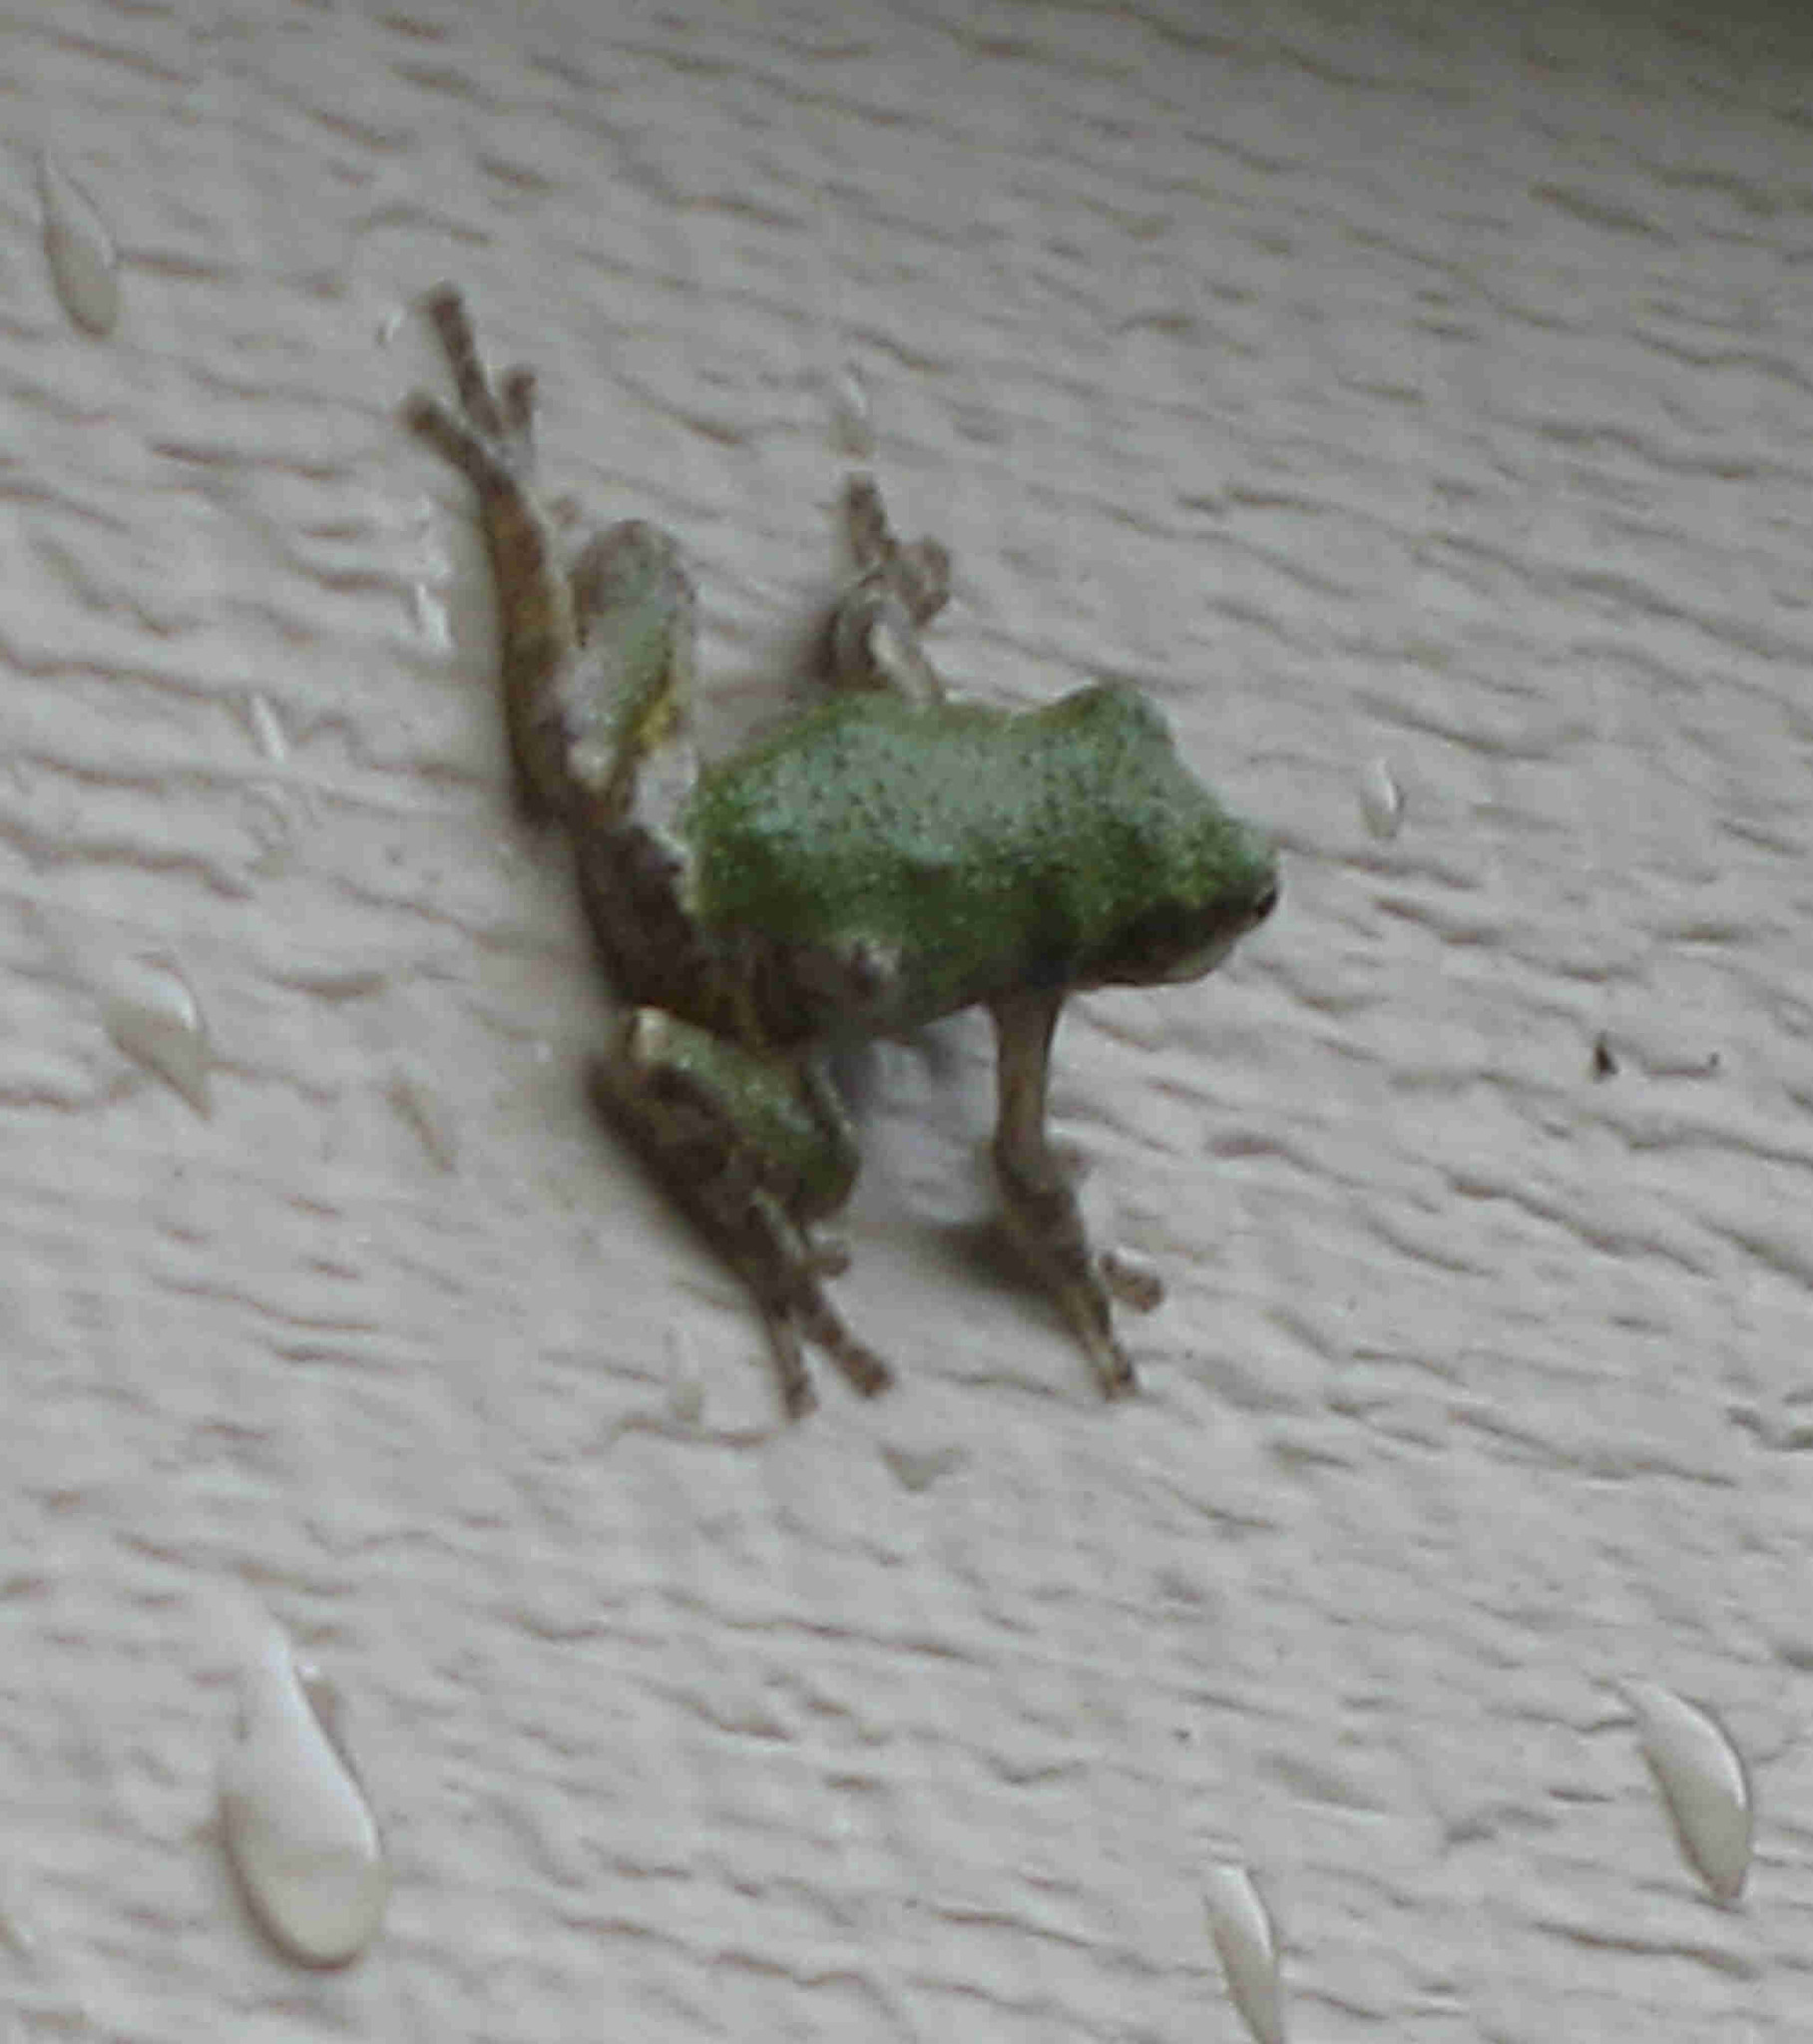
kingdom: Animalia
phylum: Chordata
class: Amphibia
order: Anura
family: Hylidae
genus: Hyla
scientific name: Hyla
